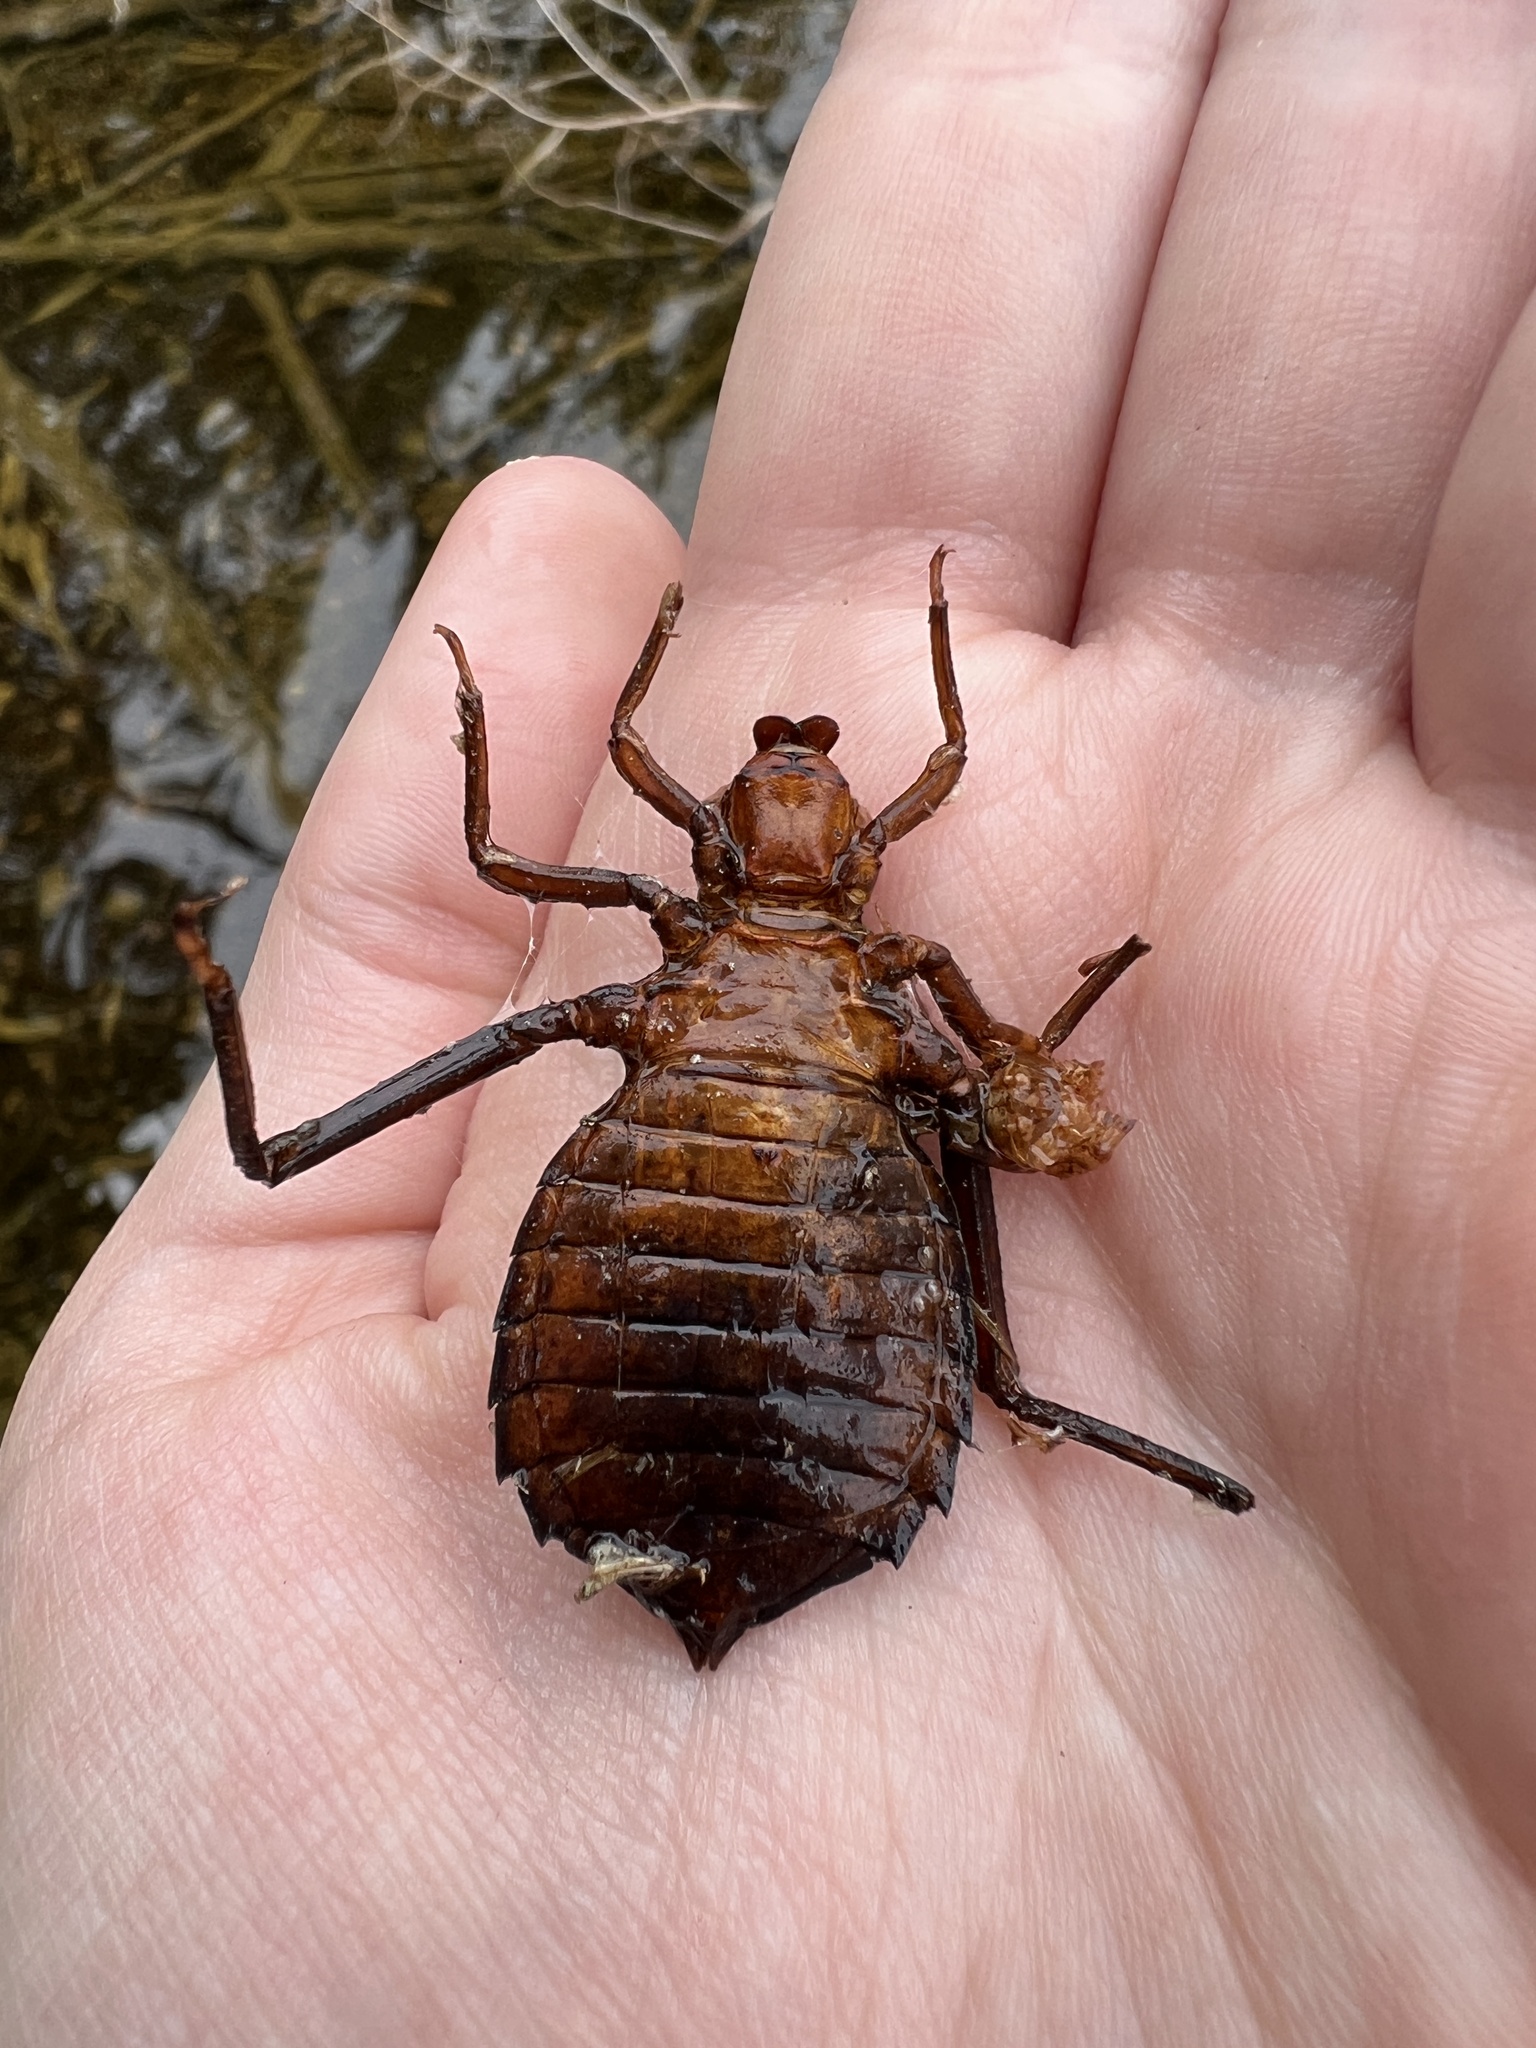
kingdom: Animalia
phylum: Arthropoda
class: Insecta
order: Odonata
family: Gomphidae
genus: Hagenius
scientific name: Hagenius brevistylus
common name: Dragonhunter
